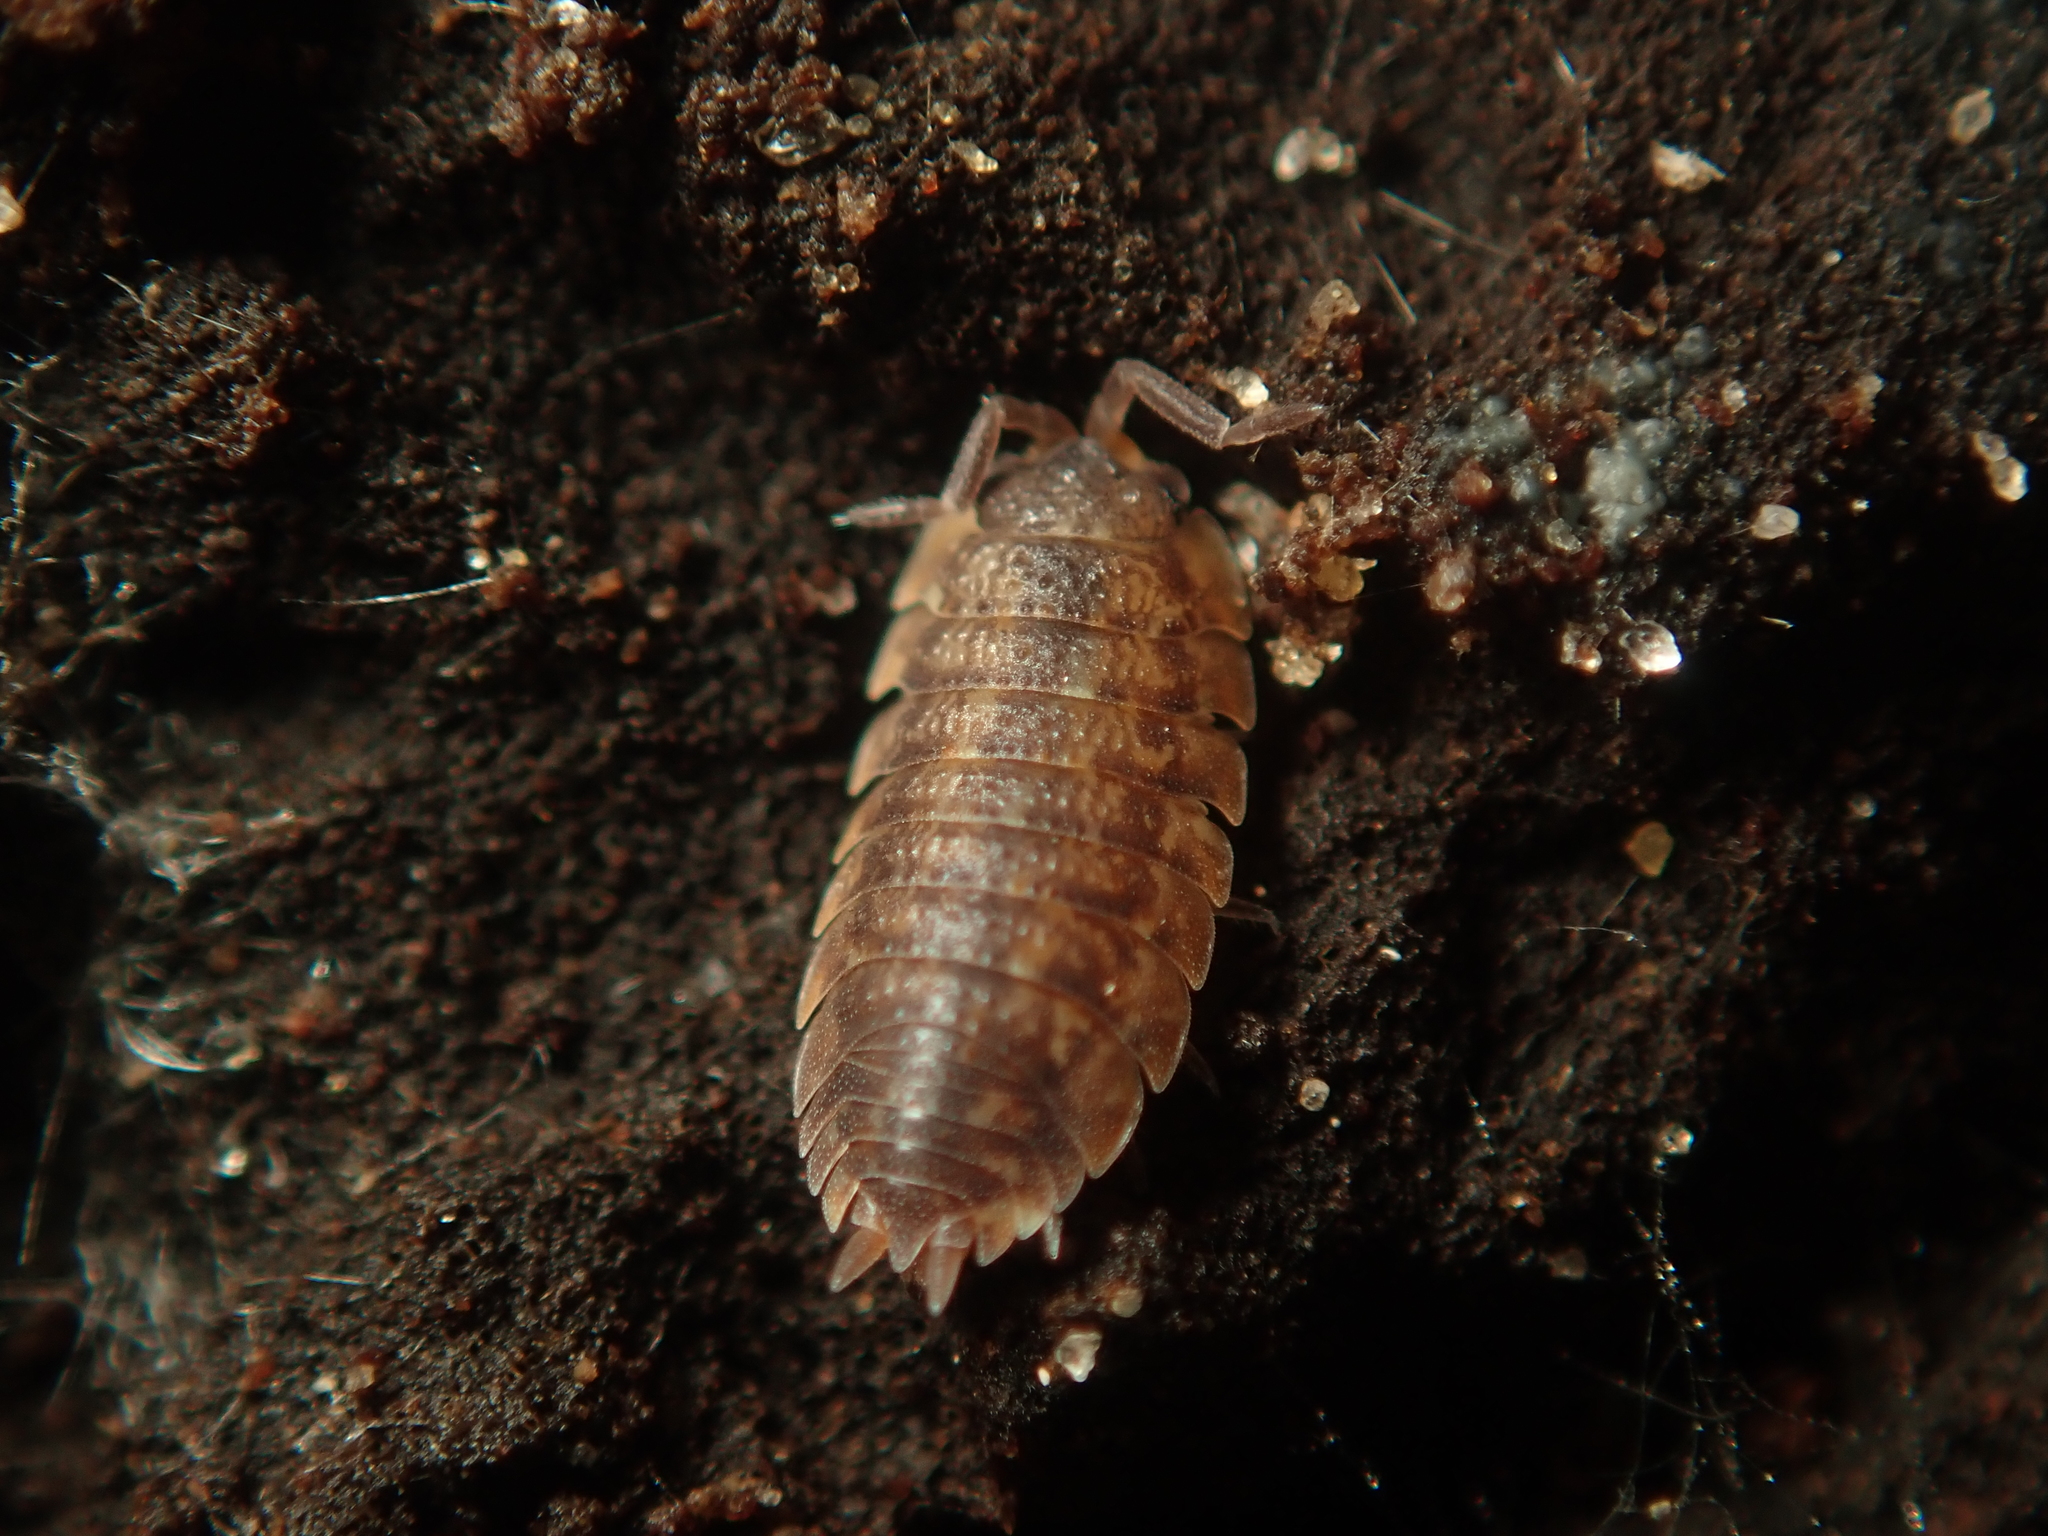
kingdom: Animalia
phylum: Arthropoda
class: Malacostraca
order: Isopoda
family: Porcellionidae
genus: Porcellio
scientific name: Porcellio scaber
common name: Common rough woodlouse
